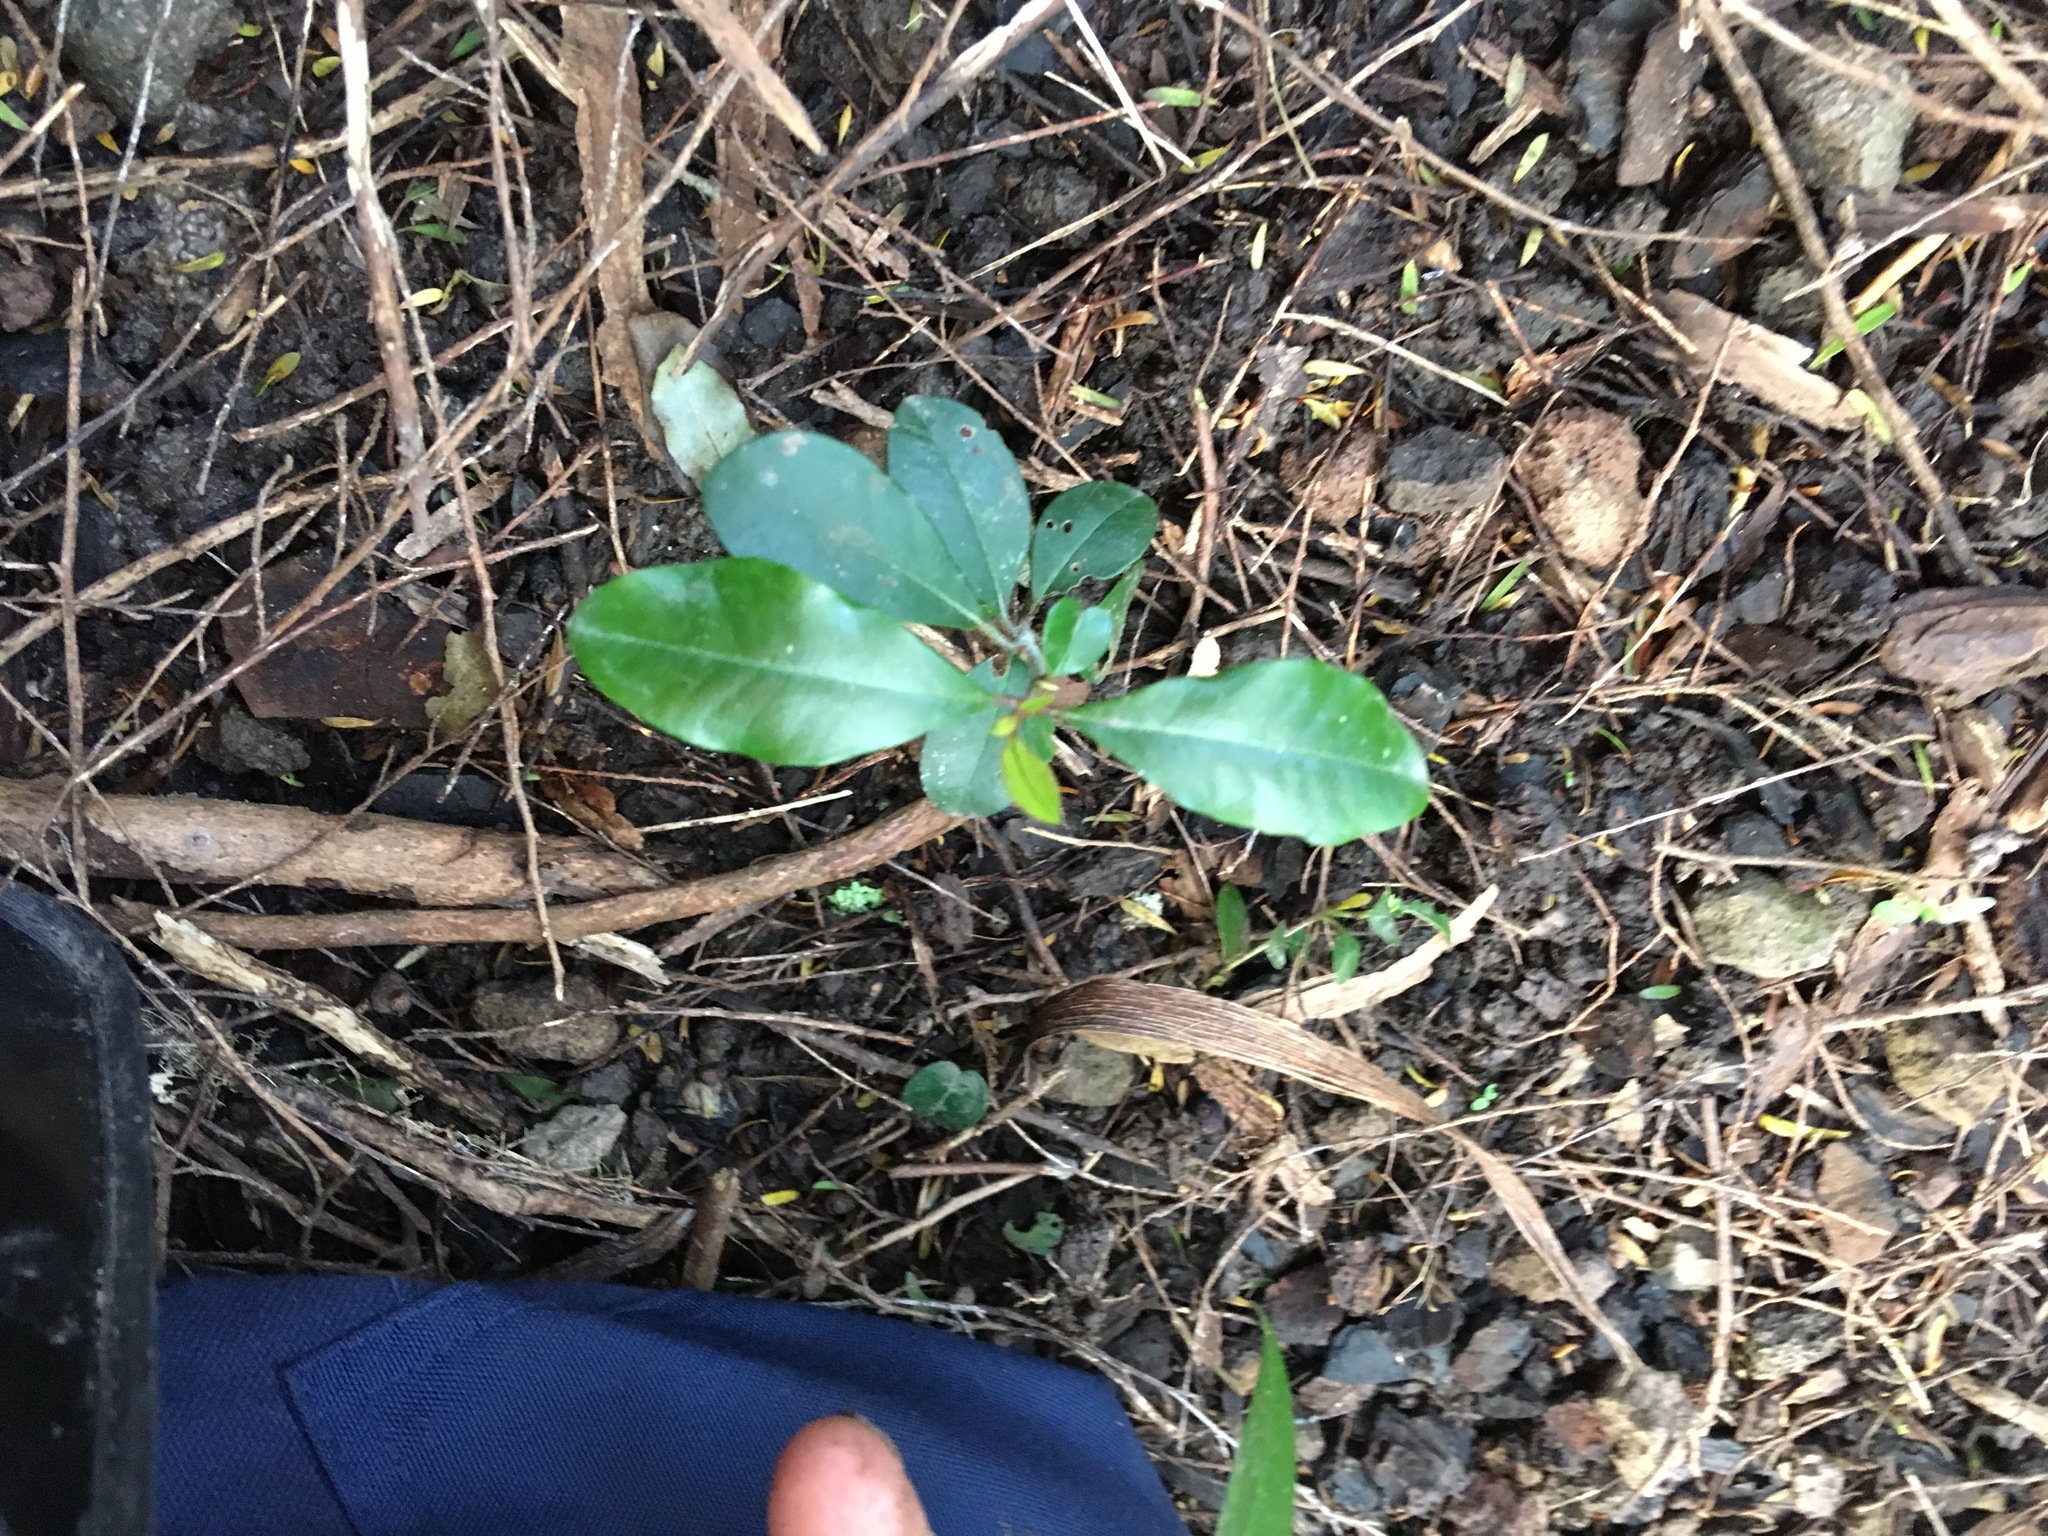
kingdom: Plantae
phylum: Tracheophyta
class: Magnoliopsida
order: Gentianales
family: Rubiaceae
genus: Coprosma
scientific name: Coprosma robusta
